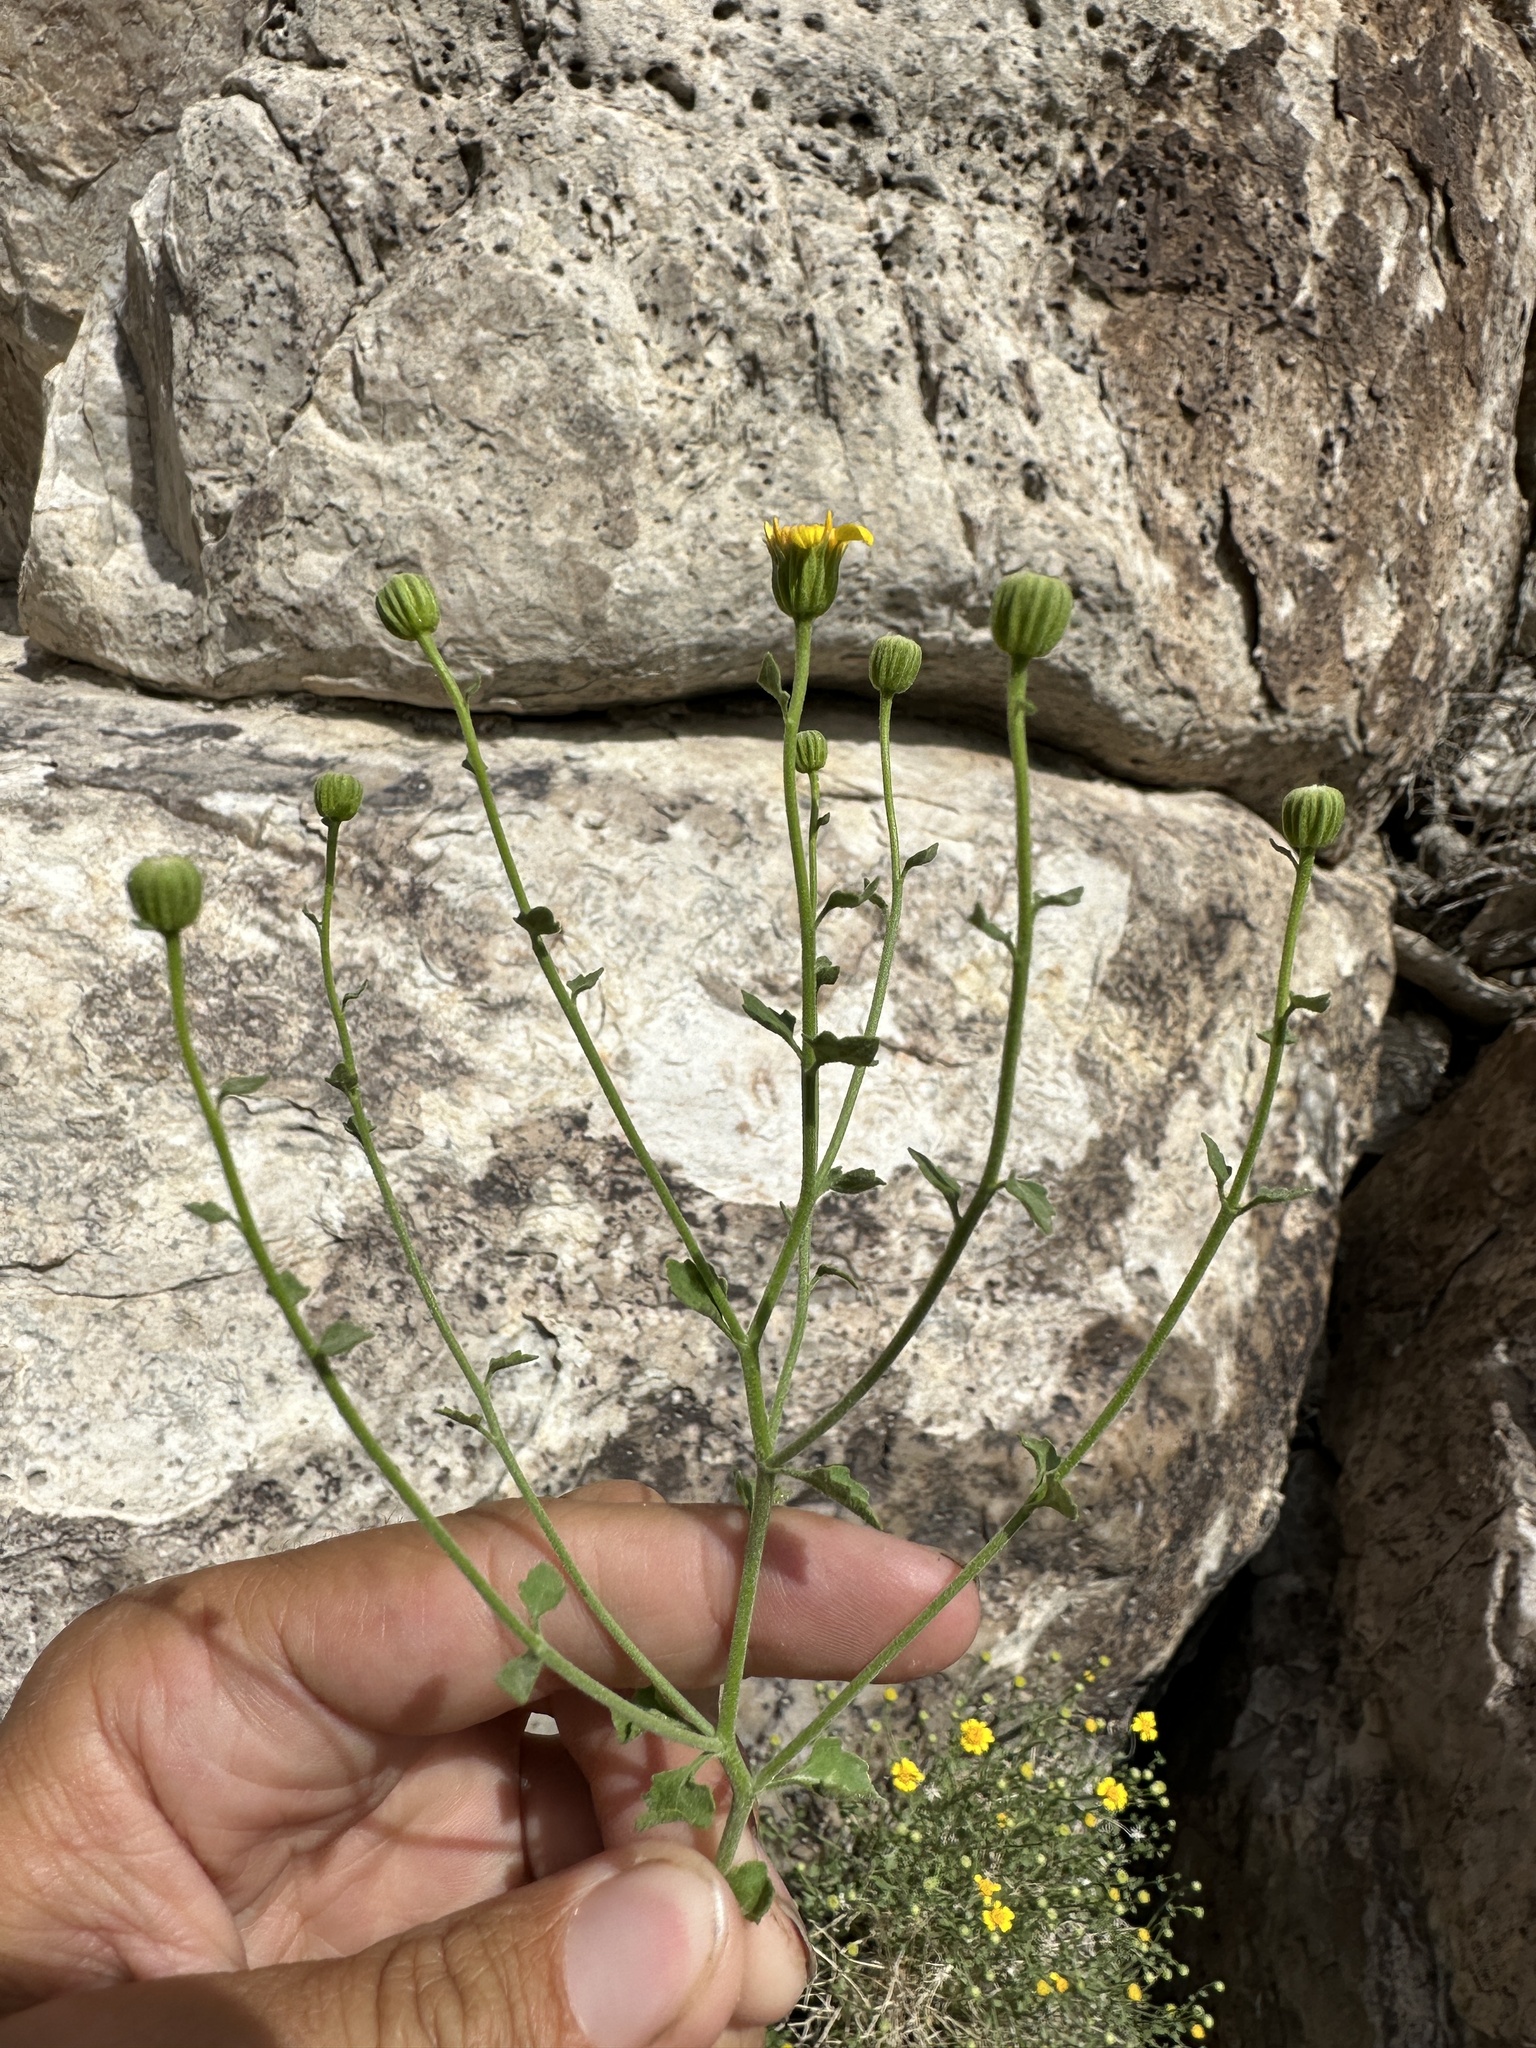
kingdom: Plantae
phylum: Tracheophyta
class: Magnoliopsida
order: Asterales
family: Asteraceae
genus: Laphamia
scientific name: Laphamia stansburyi
